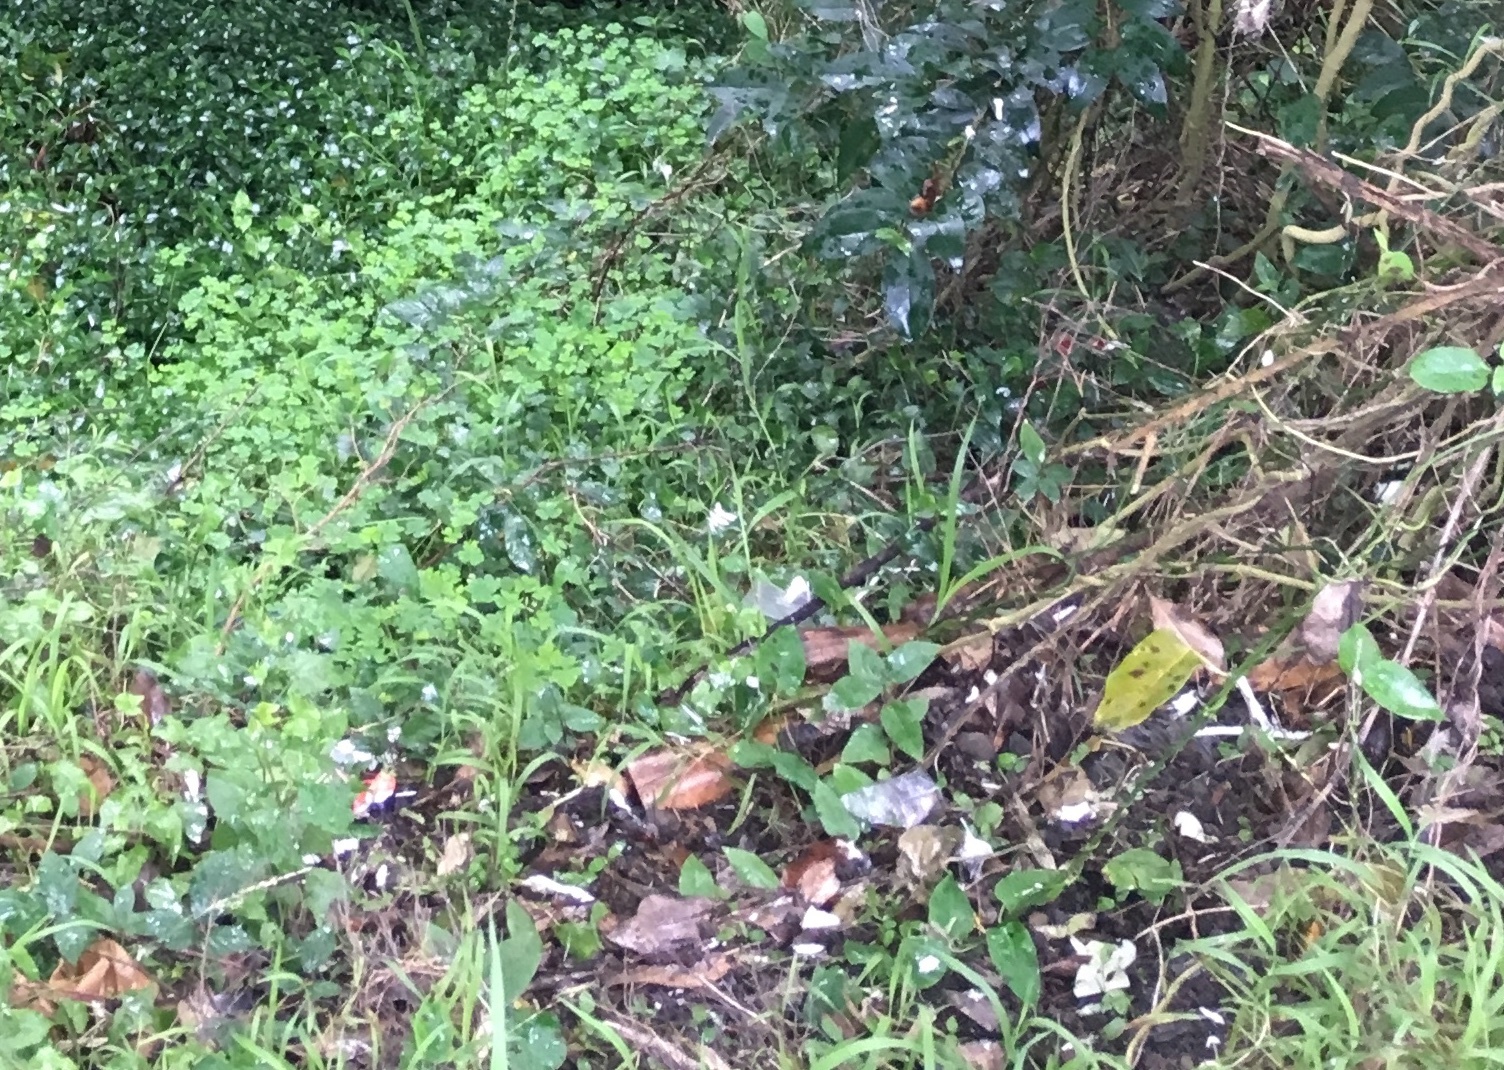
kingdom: Plantae
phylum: Tracheophyta
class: Magnoliopsida
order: Gentianales
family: Apocynaceae
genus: Araujia
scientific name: Araujia sericifera
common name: White bladderflower
